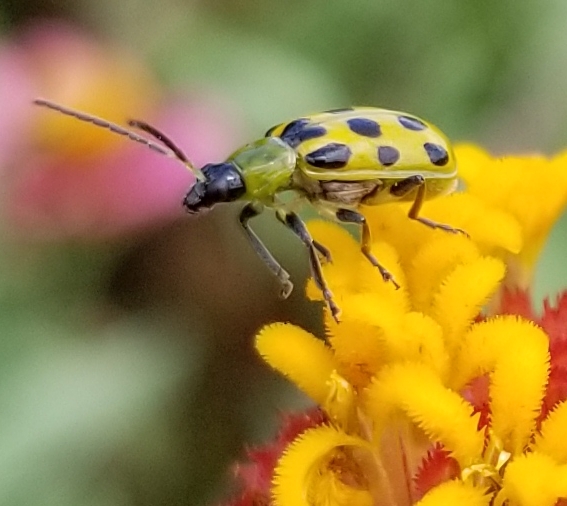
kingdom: Animalia
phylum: Arthropoda
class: Insecta
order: Coleoptera
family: Chrysomelidae
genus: Diabrotica
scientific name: Diabrotica undecimpunctata
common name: Spotted cucumber beetle
